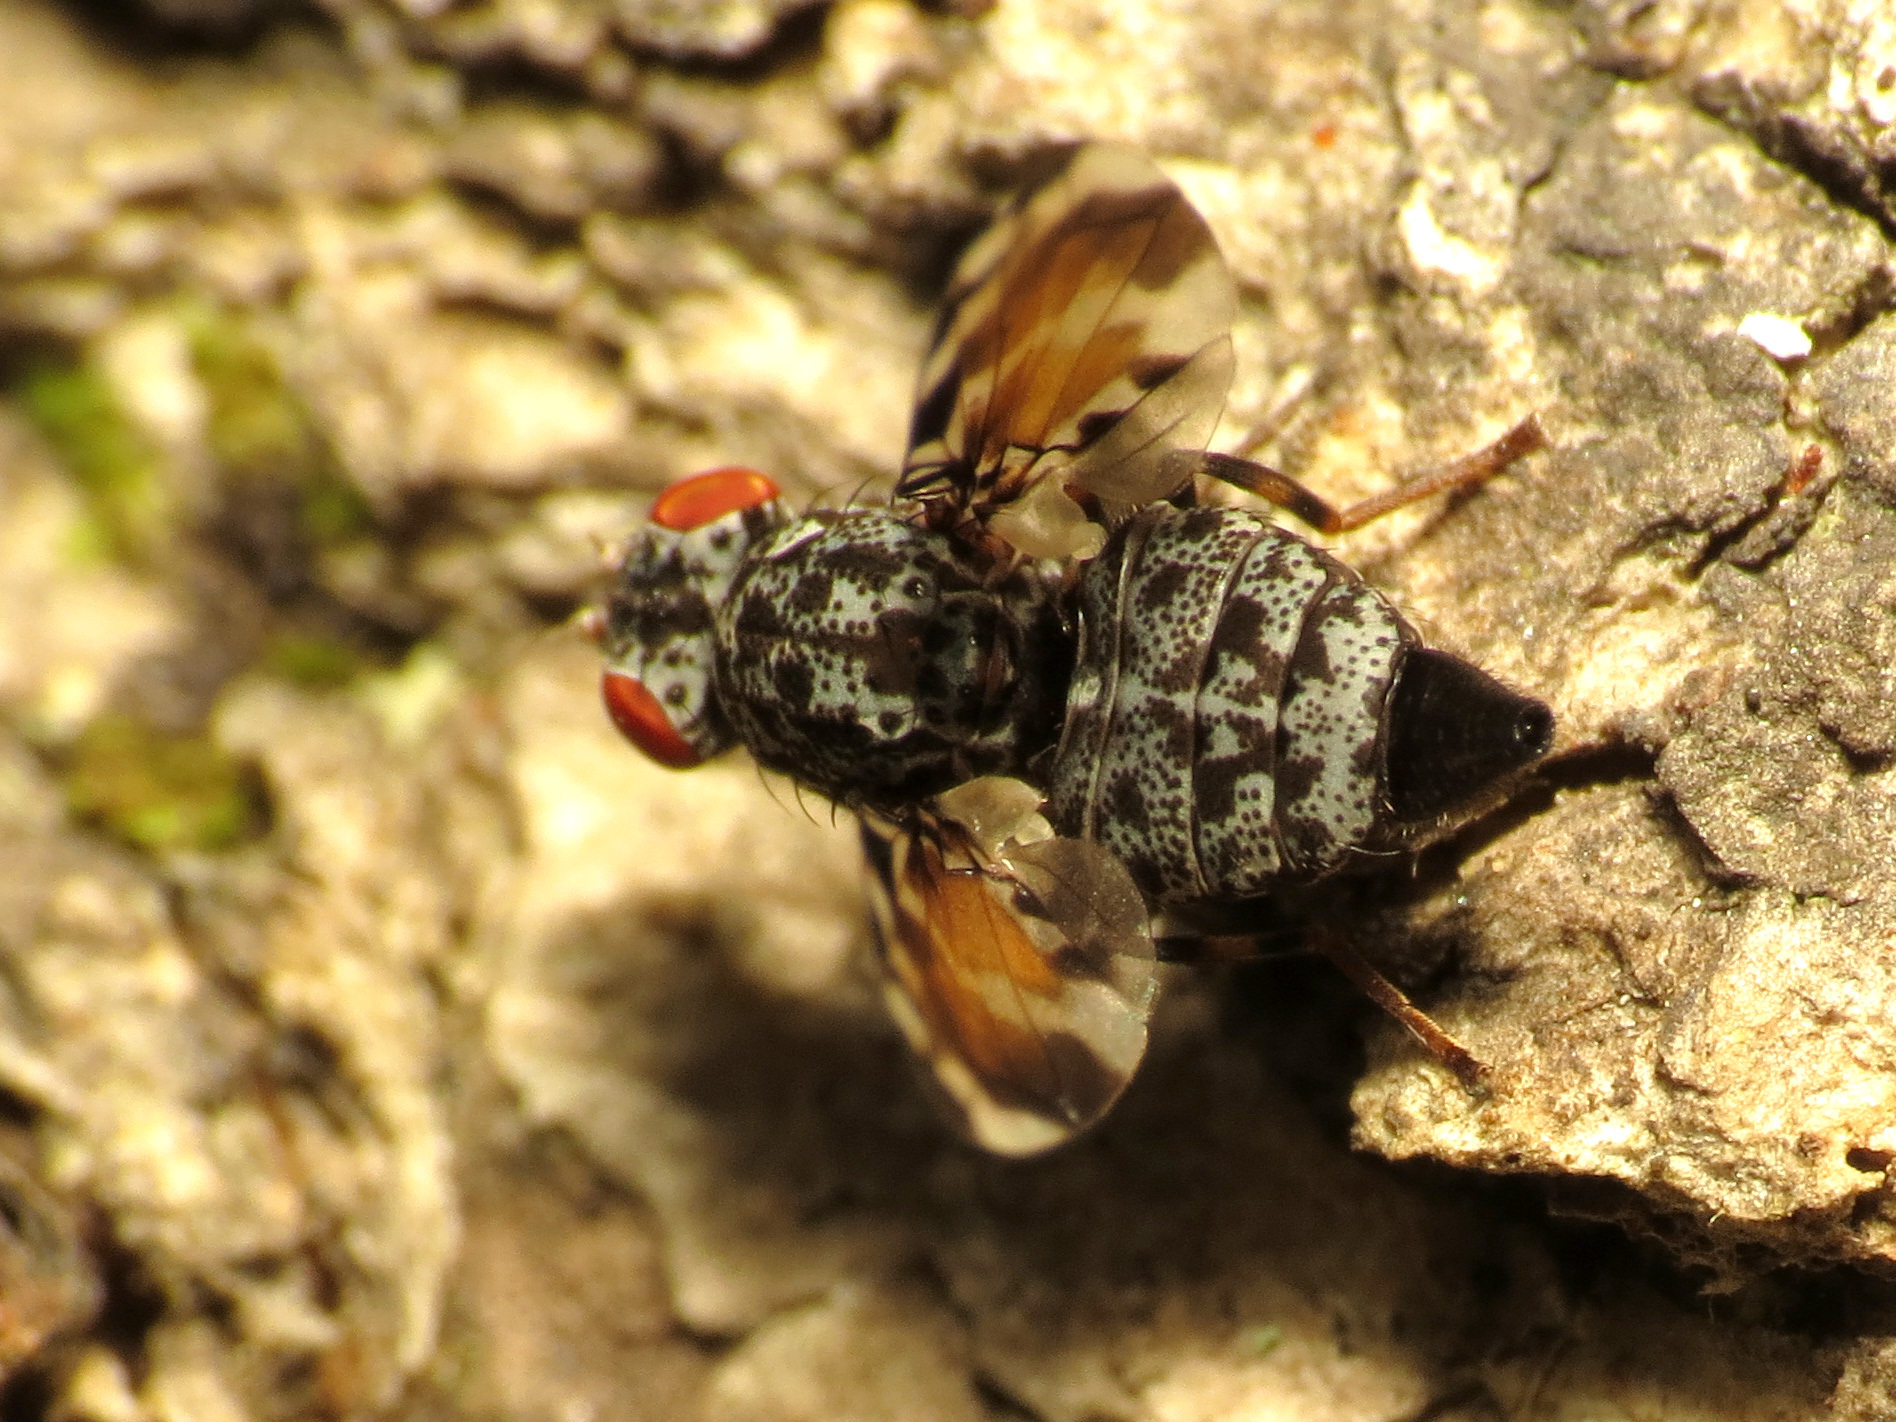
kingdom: Animalia
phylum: Arthropoda
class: Insecta
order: Diptera
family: Ulidiidae
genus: Pseudotephritis
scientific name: Pseudotephritis vau
